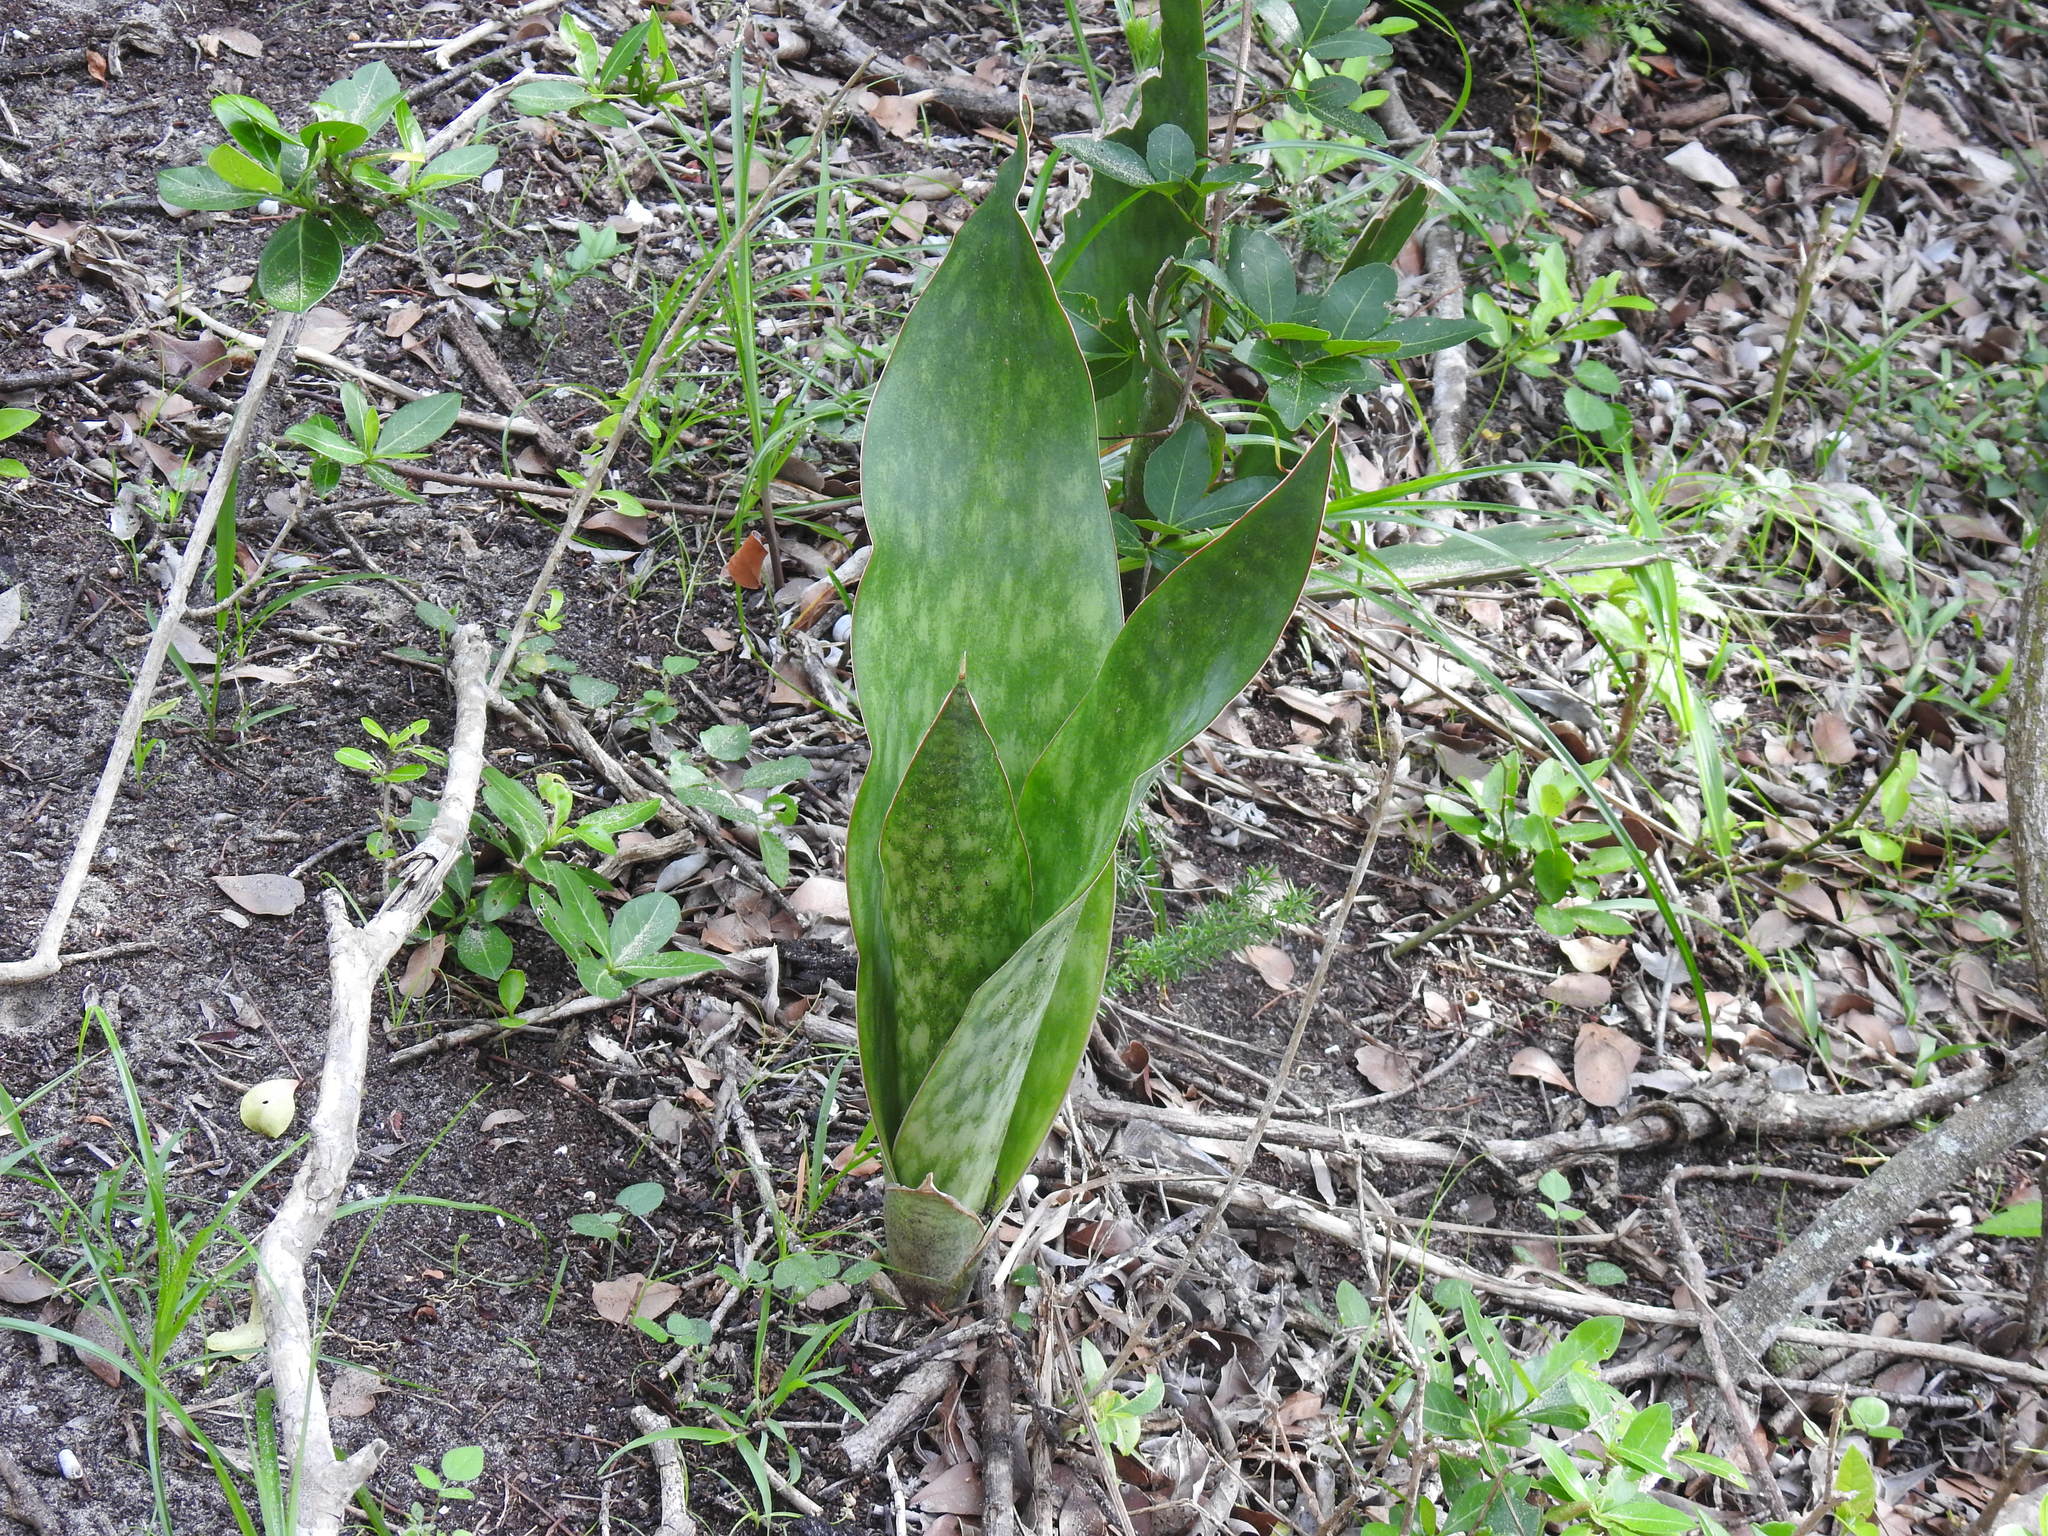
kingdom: Plantae
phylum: Tracheophyta
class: Liliopsida
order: Asparagales
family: Asparagaceae
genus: Dracaena
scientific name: Dracaena hyacinthoides
